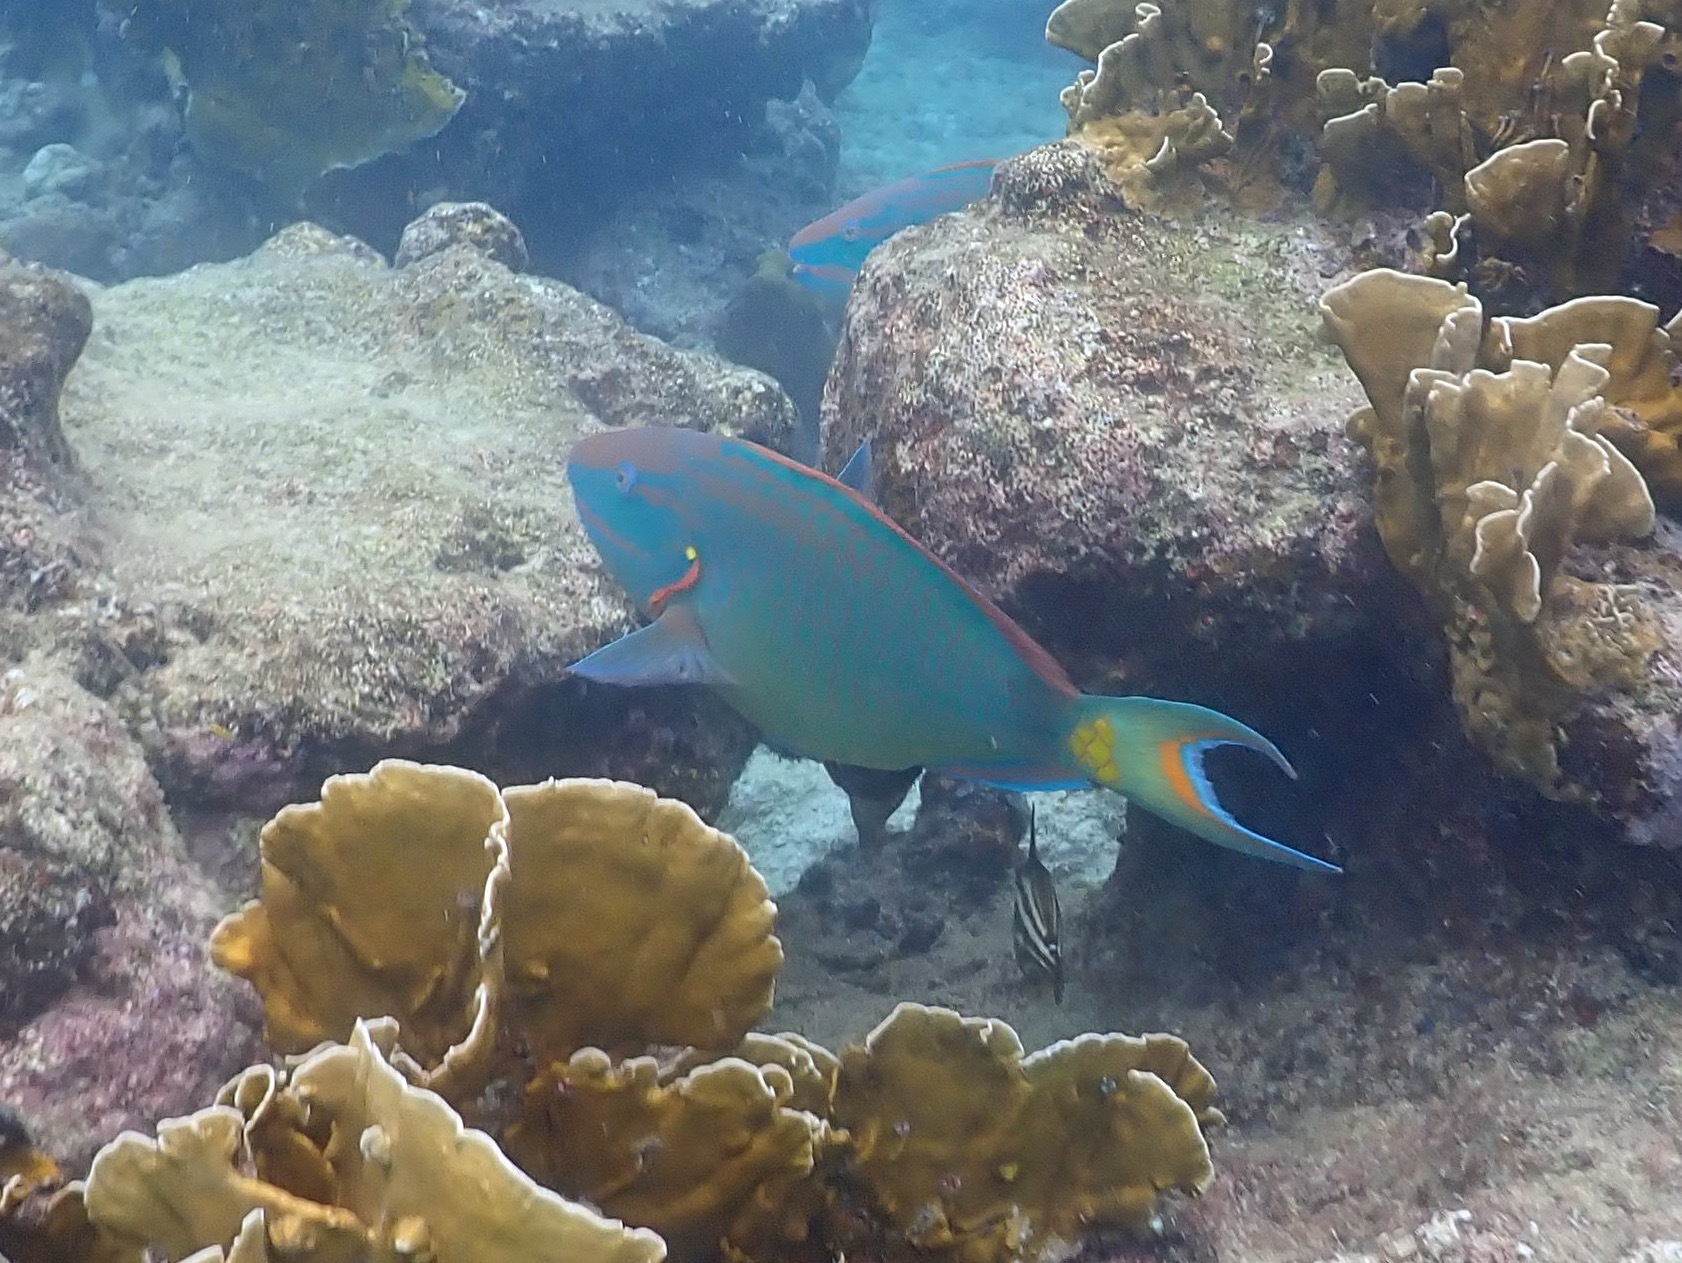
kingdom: Animalia
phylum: Chordata
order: Perciformes
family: Scaridae
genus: Sparisoma
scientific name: Sparisoma viride
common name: Stoplight parrotfish
